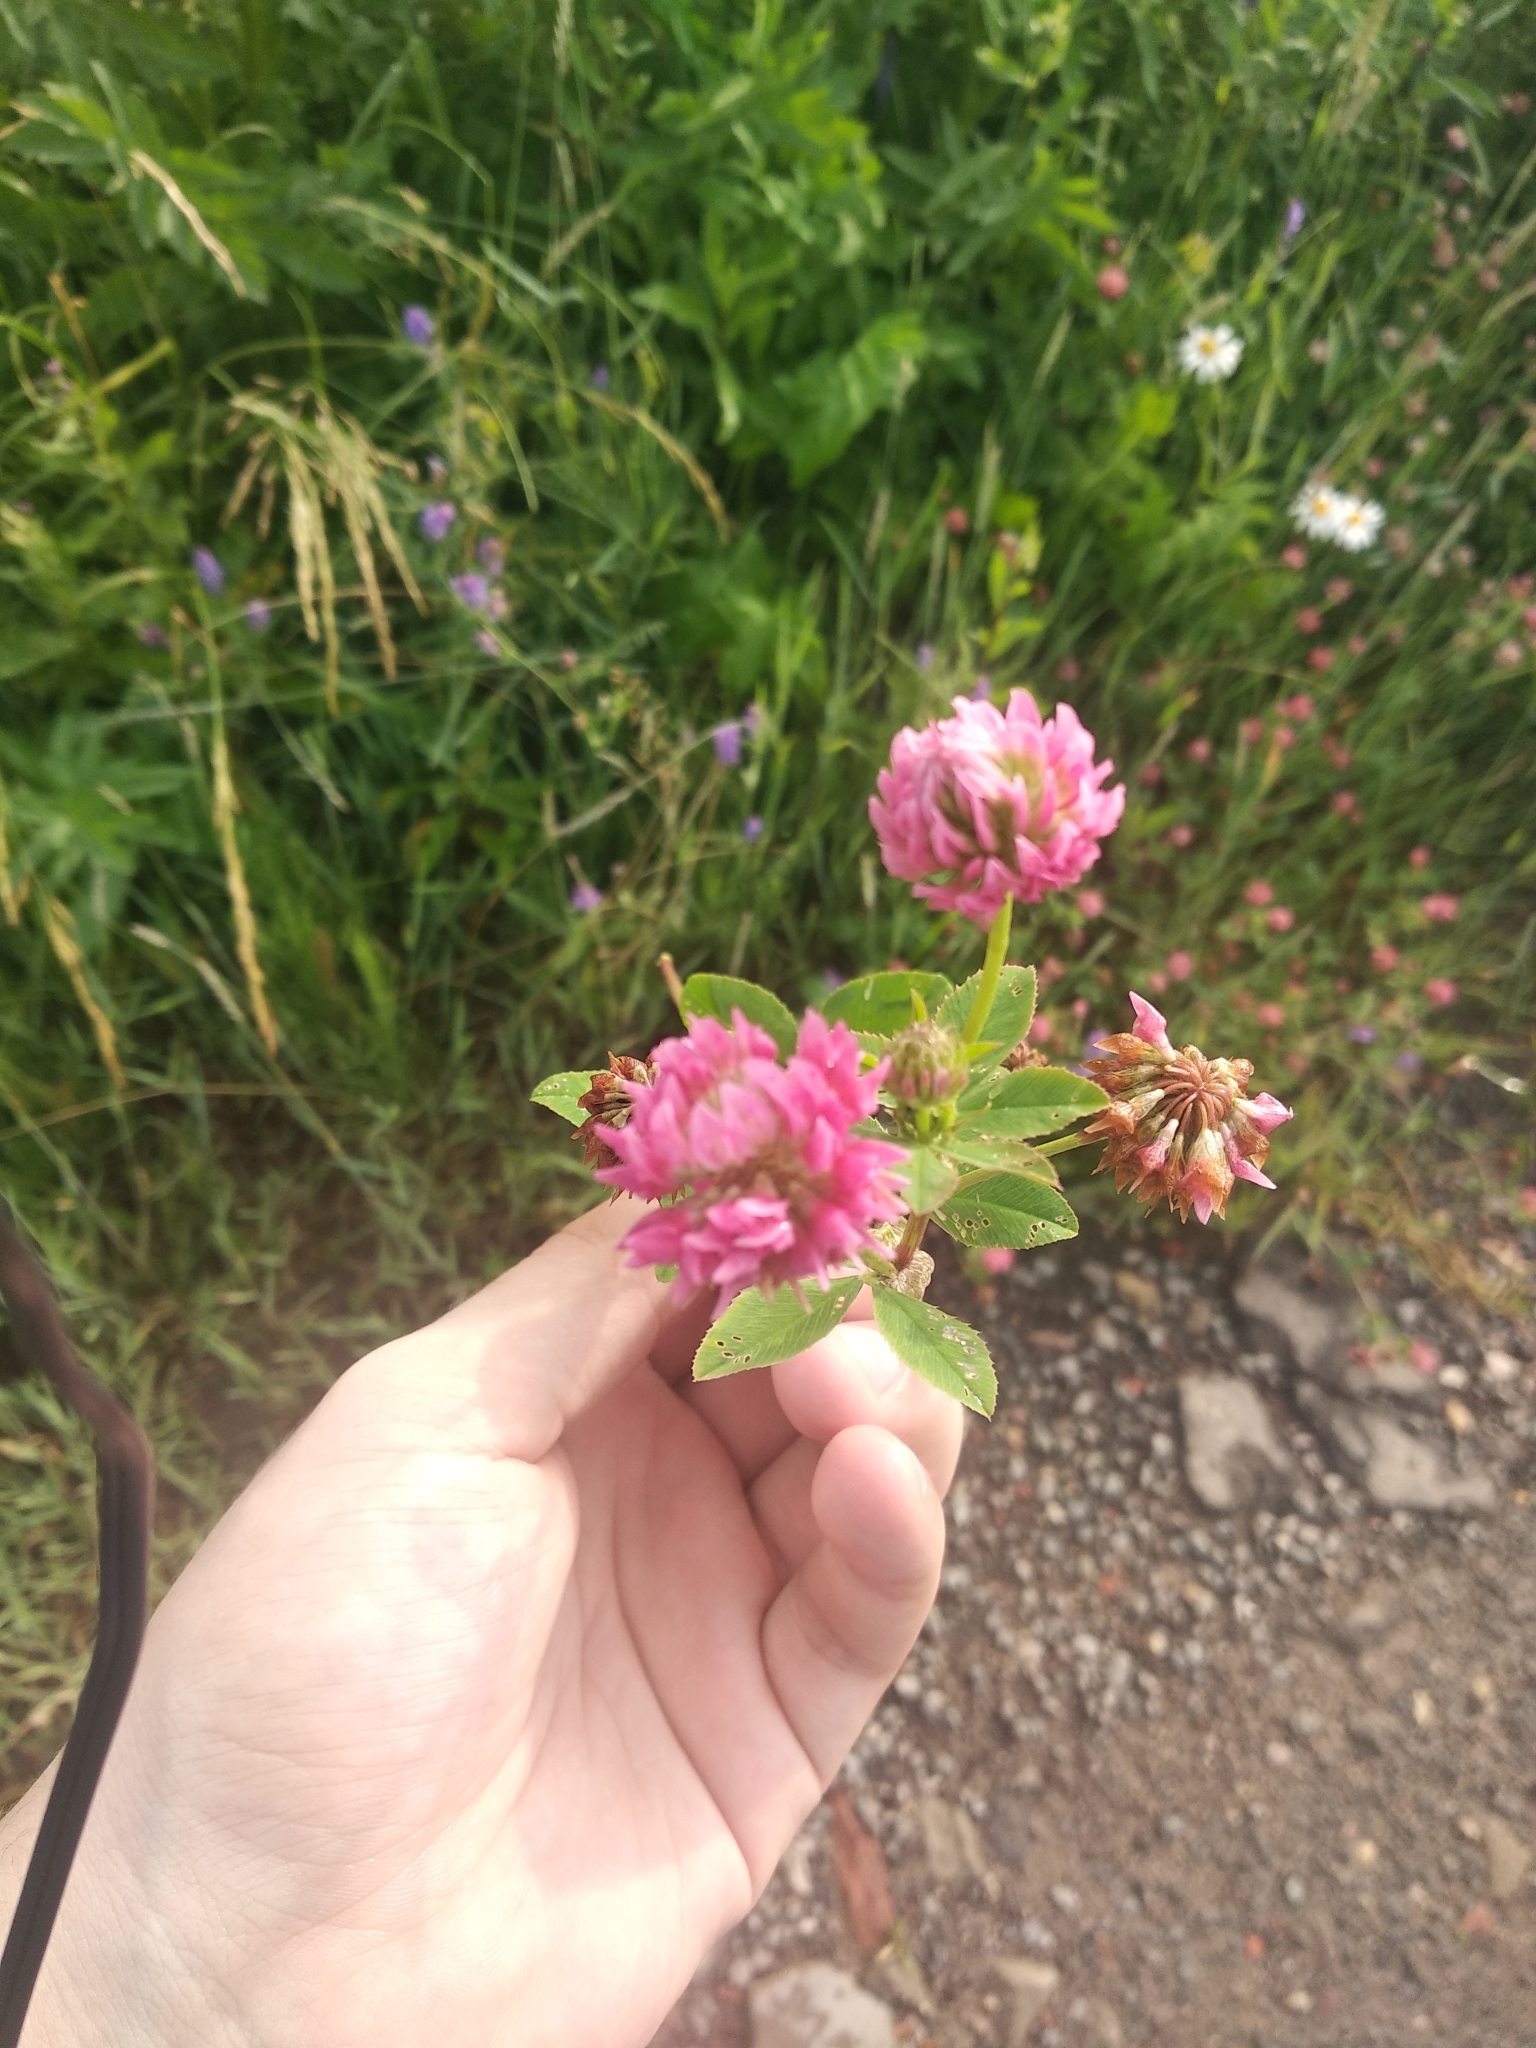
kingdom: Plantae
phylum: Tracheophyta
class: Magnoliopsida
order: Fabales
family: Fabaceae
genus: Trifolium
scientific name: Trifolium hybridum
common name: Alsike clover
